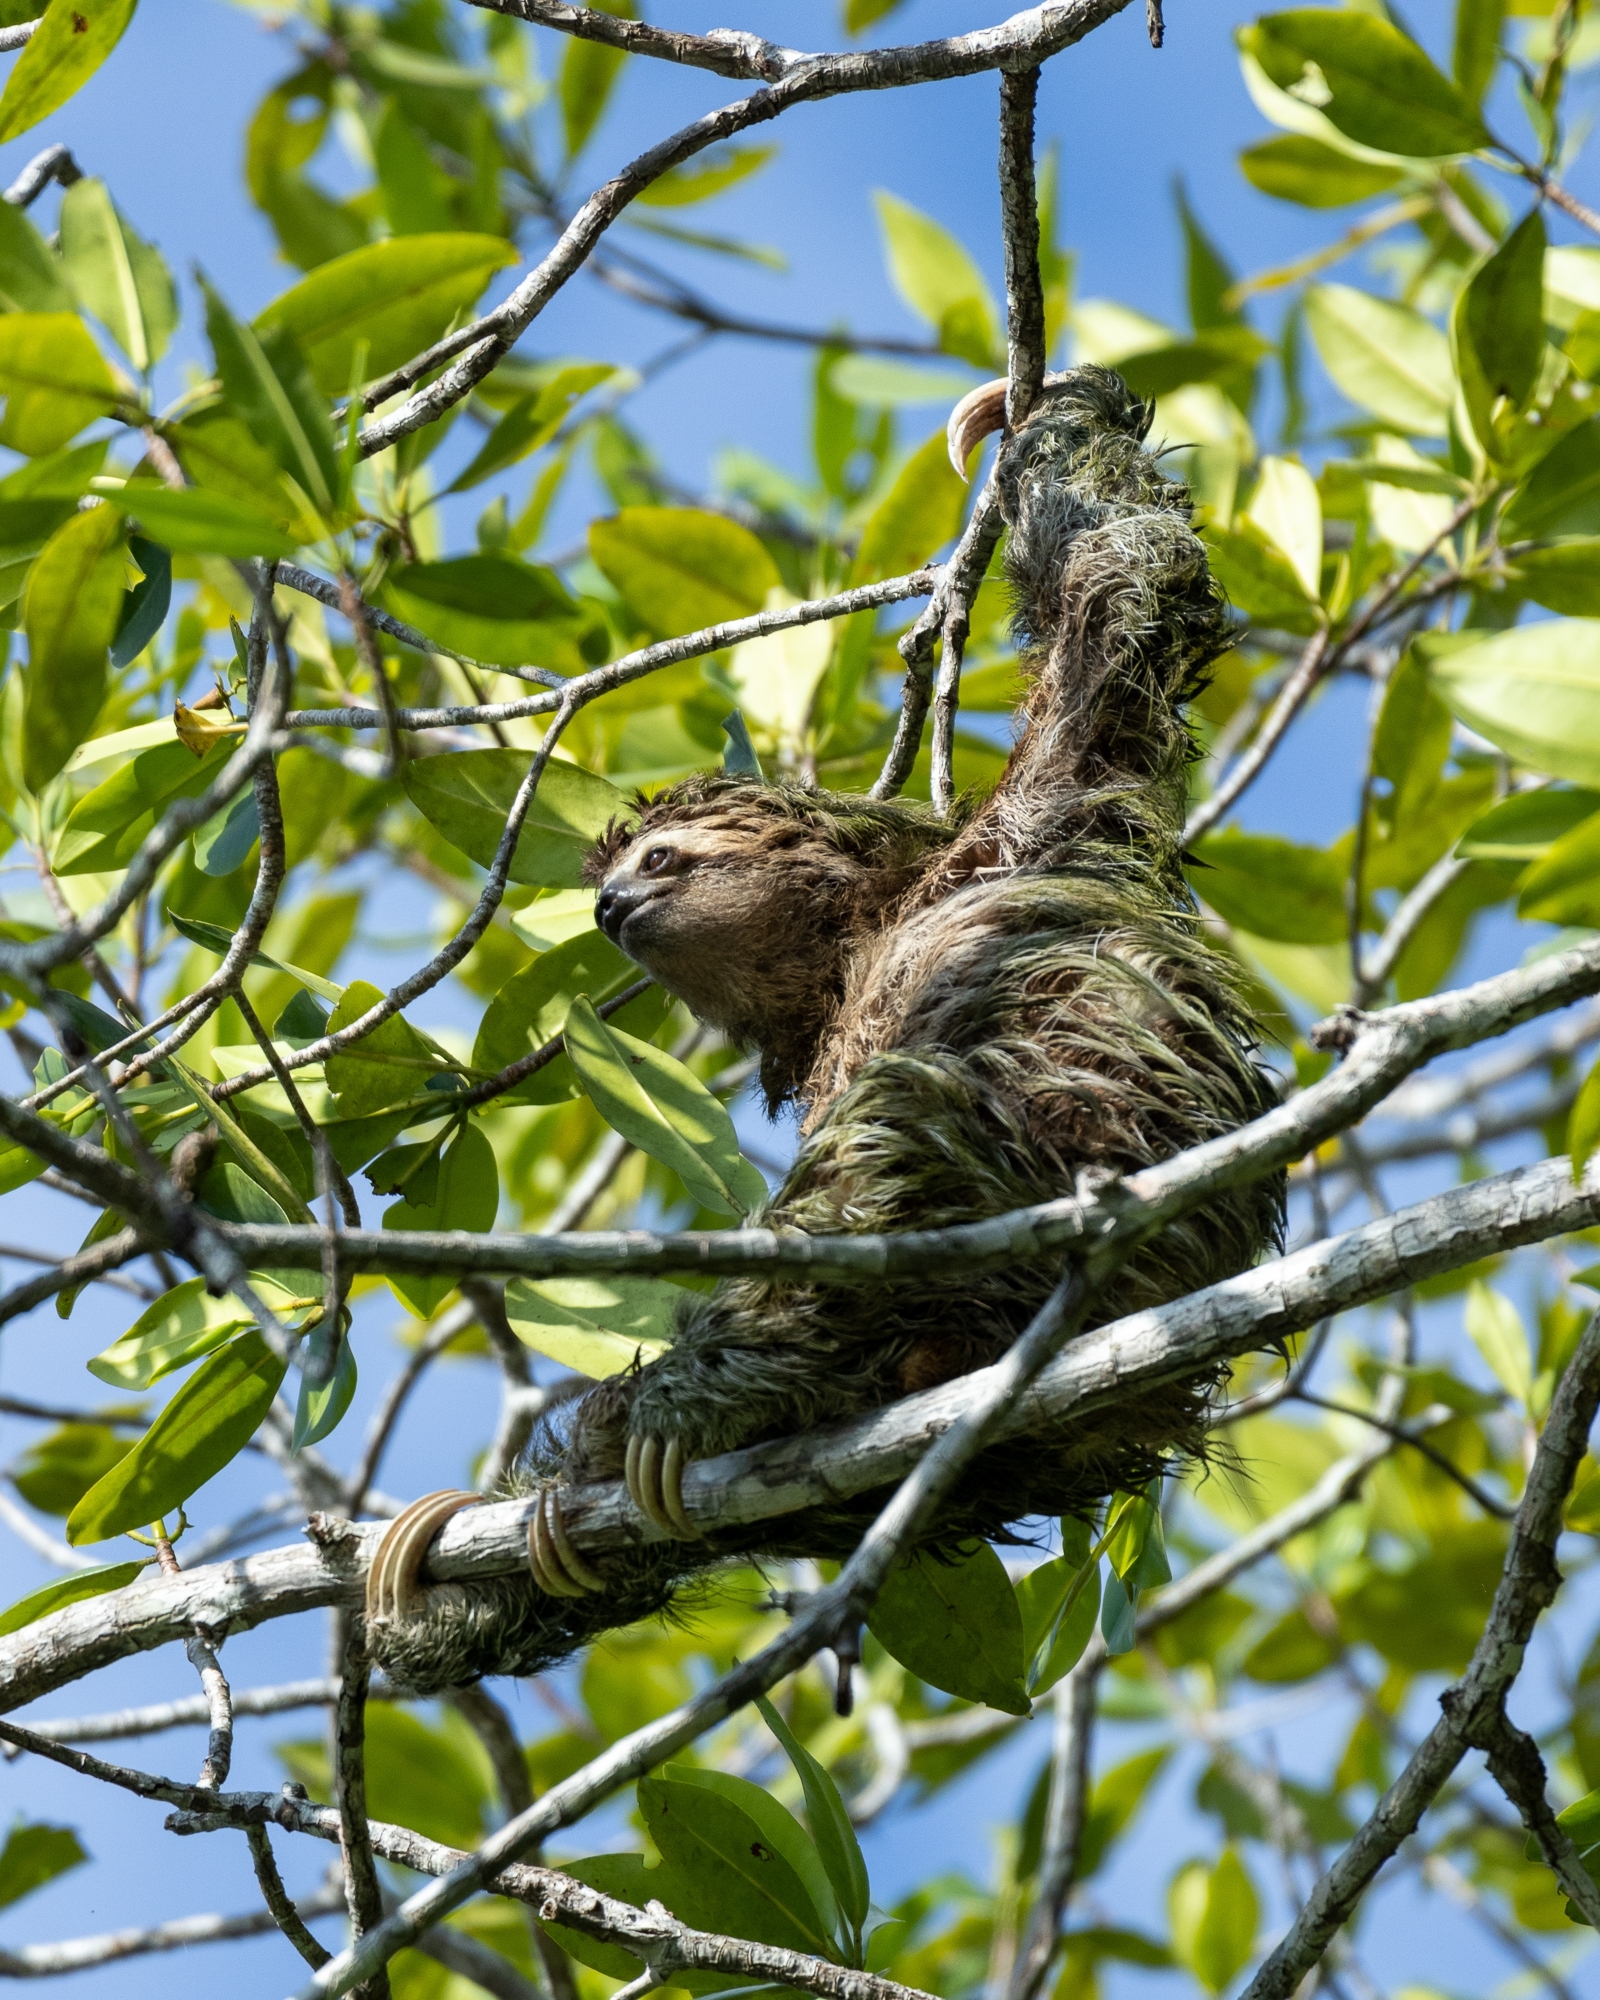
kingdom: Animalia
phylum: Chordata
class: Mammalia
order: Pilosa
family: Bradypodidae
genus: Bradypus
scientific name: Bradypus variegatus
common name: Brown-throated three-toed sloth
